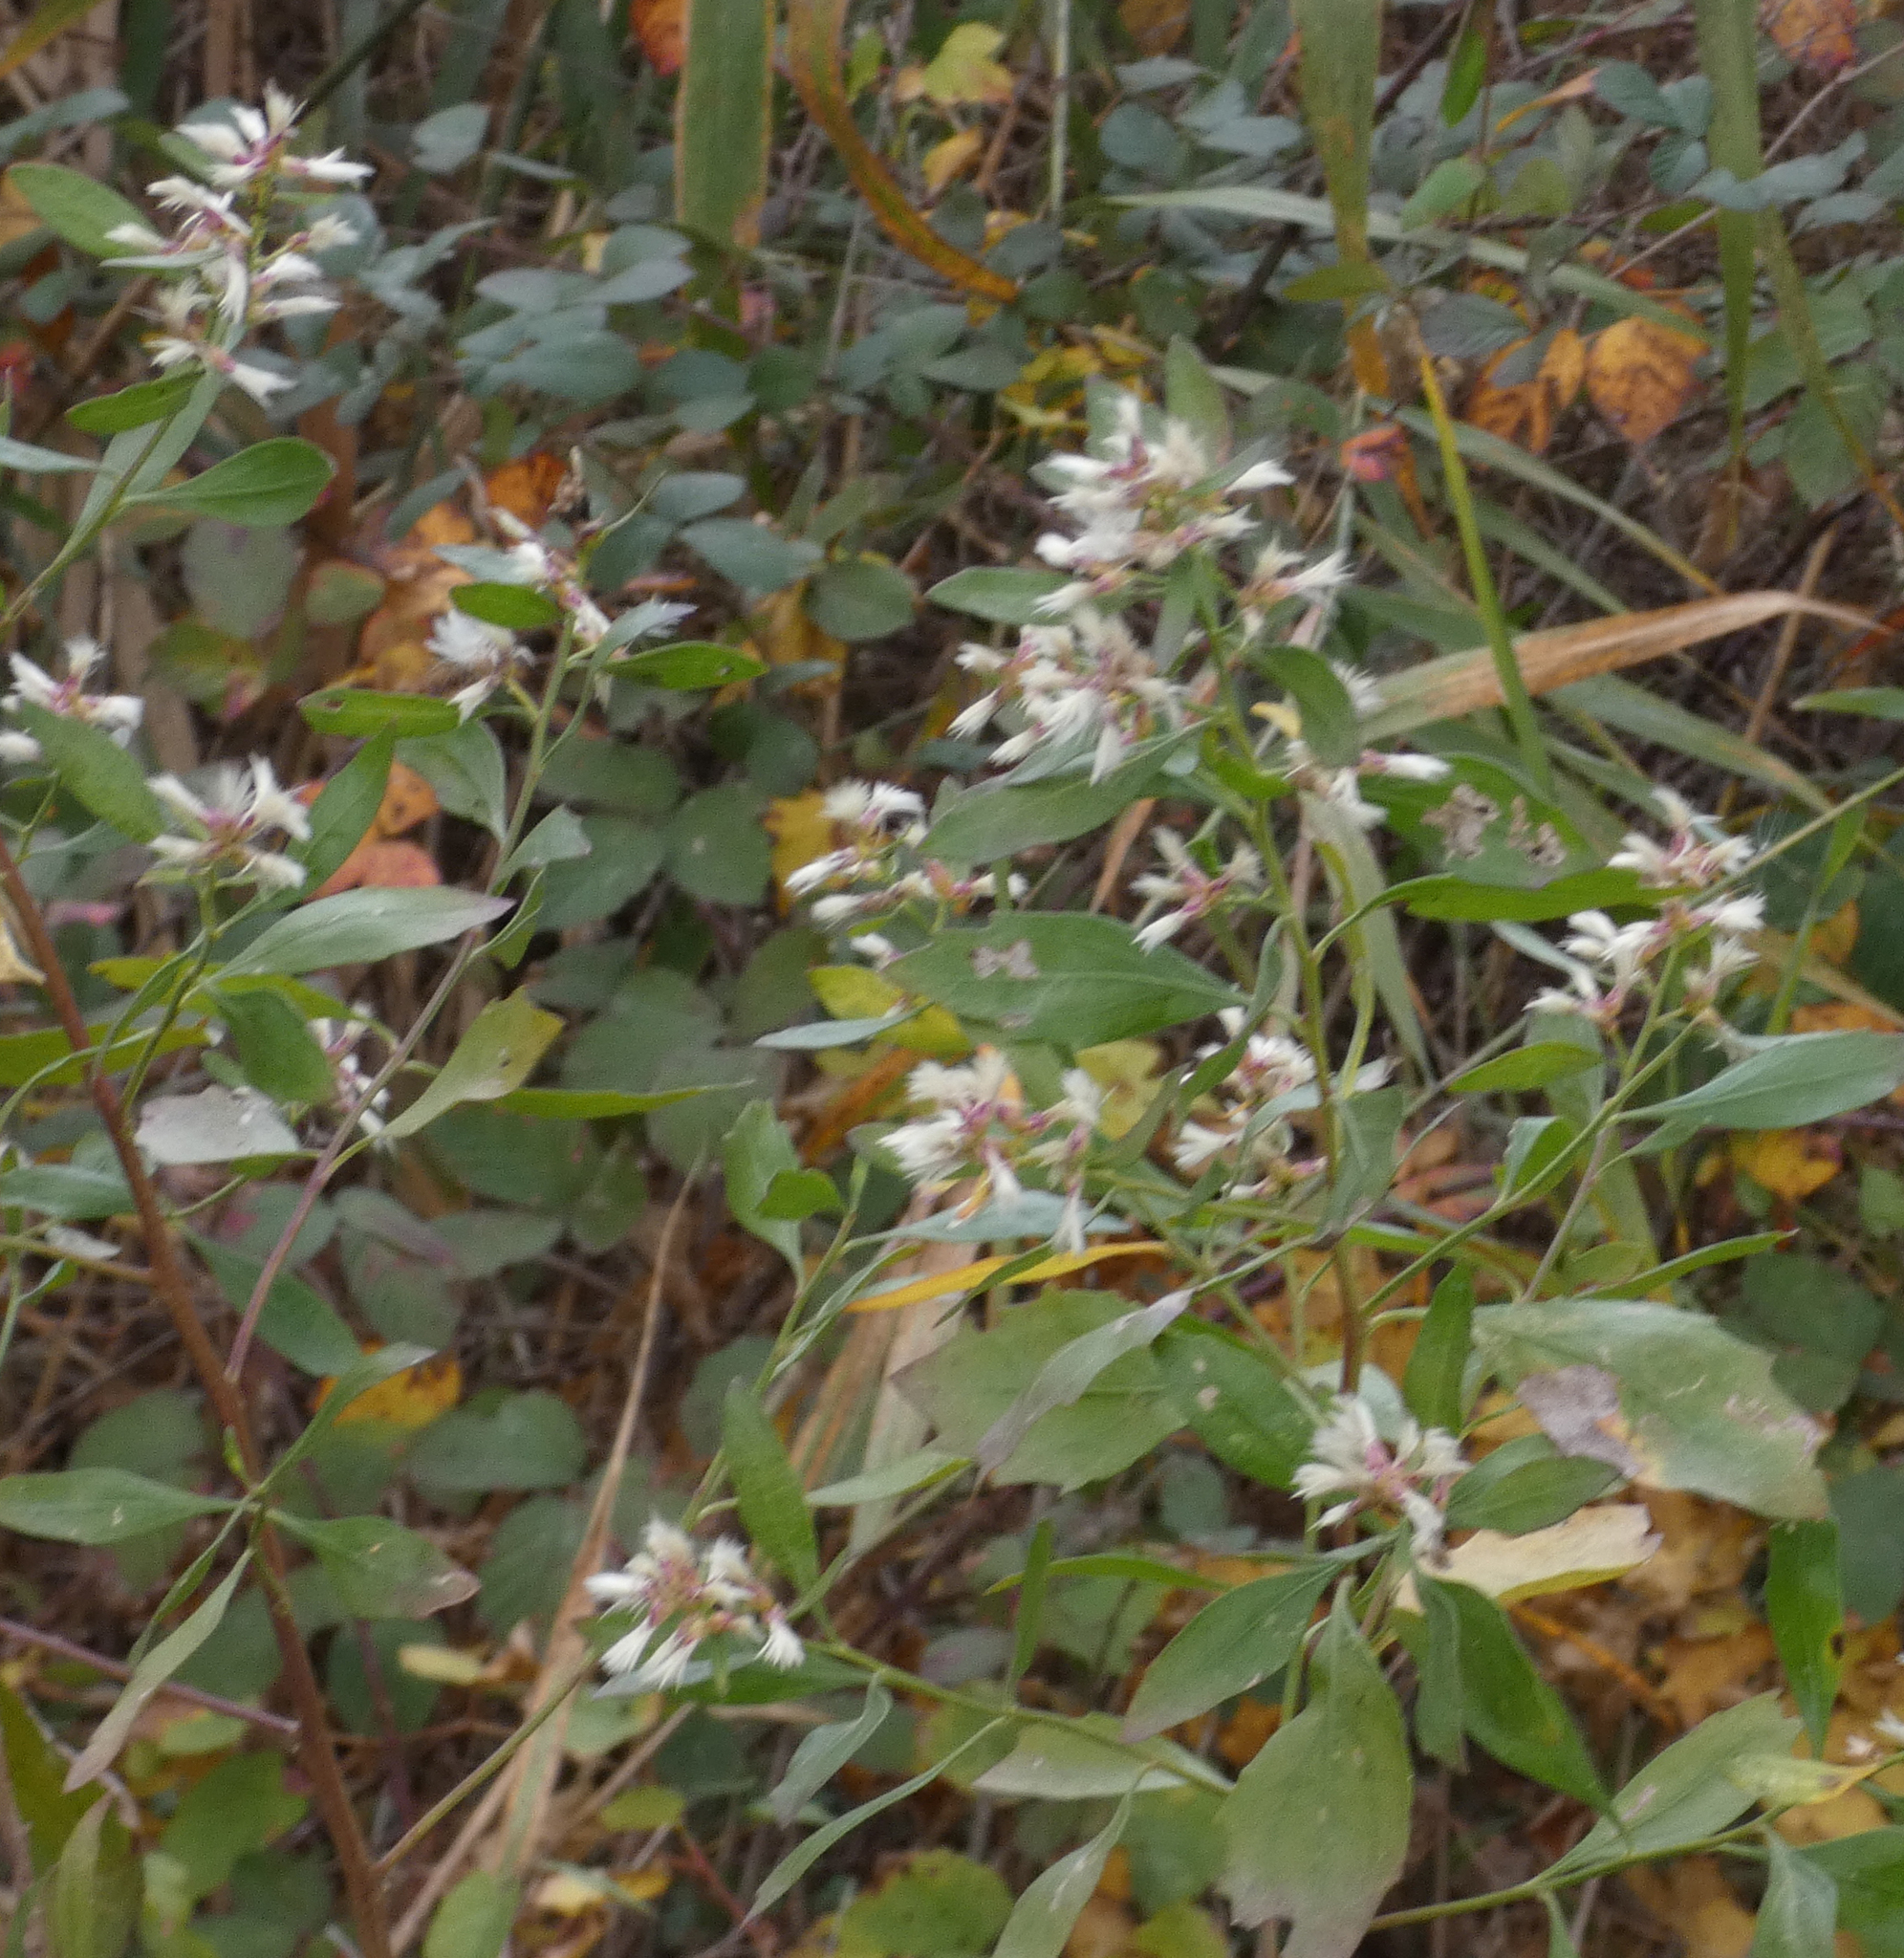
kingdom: Plantae
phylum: Tracheophyta
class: Magnoliopsida
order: Asterales
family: Asteraceae
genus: Baccharis
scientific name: Baccharis halimifolia
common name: Eastern baccharis
